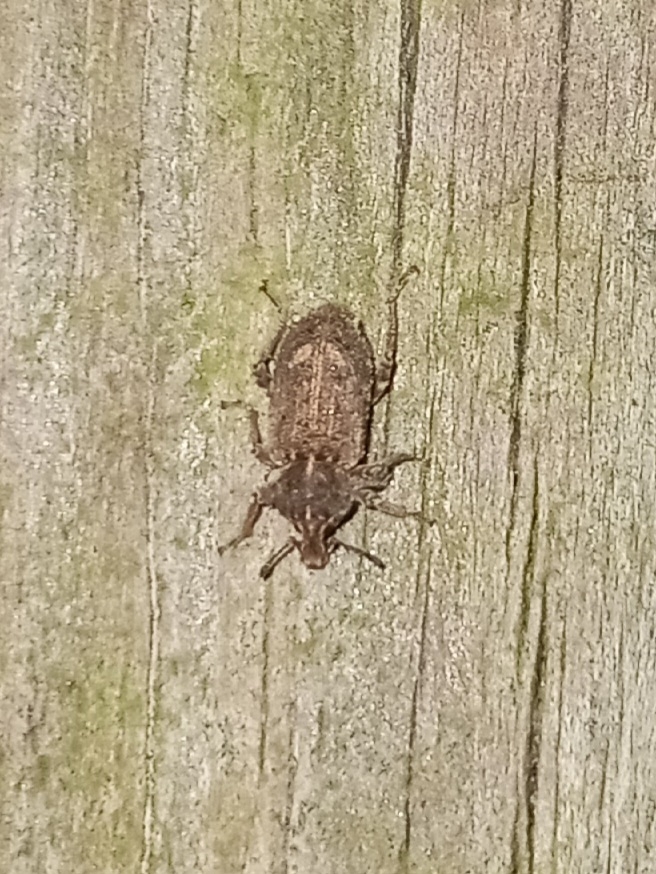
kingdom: Animalia
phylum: Arthropoda
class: Insecta
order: Coleoptera
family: Curculionidae
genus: Listroderes
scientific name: Listroderes costirostris
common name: Weevil
